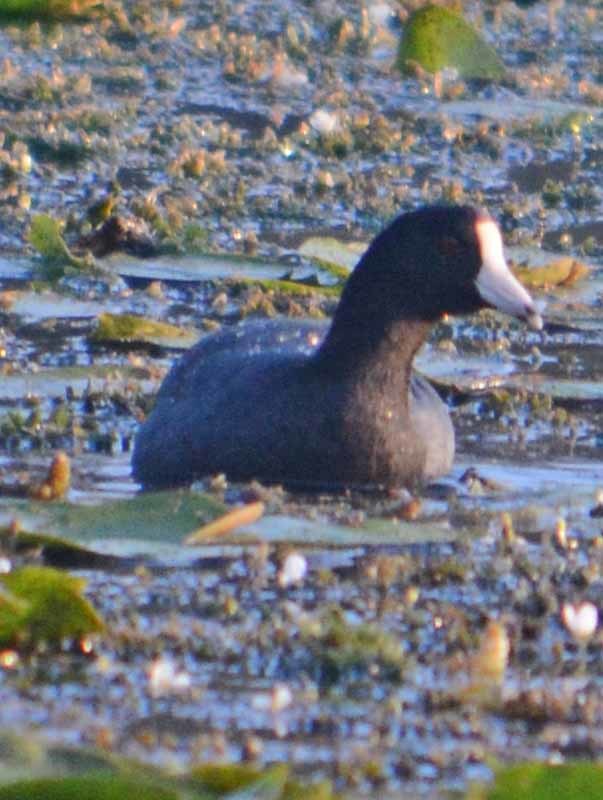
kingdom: Animalia
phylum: Chordata
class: Aves
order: Gruiformes
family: Rallidae
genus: Fulica
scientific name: Fulica americana
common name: American coot
